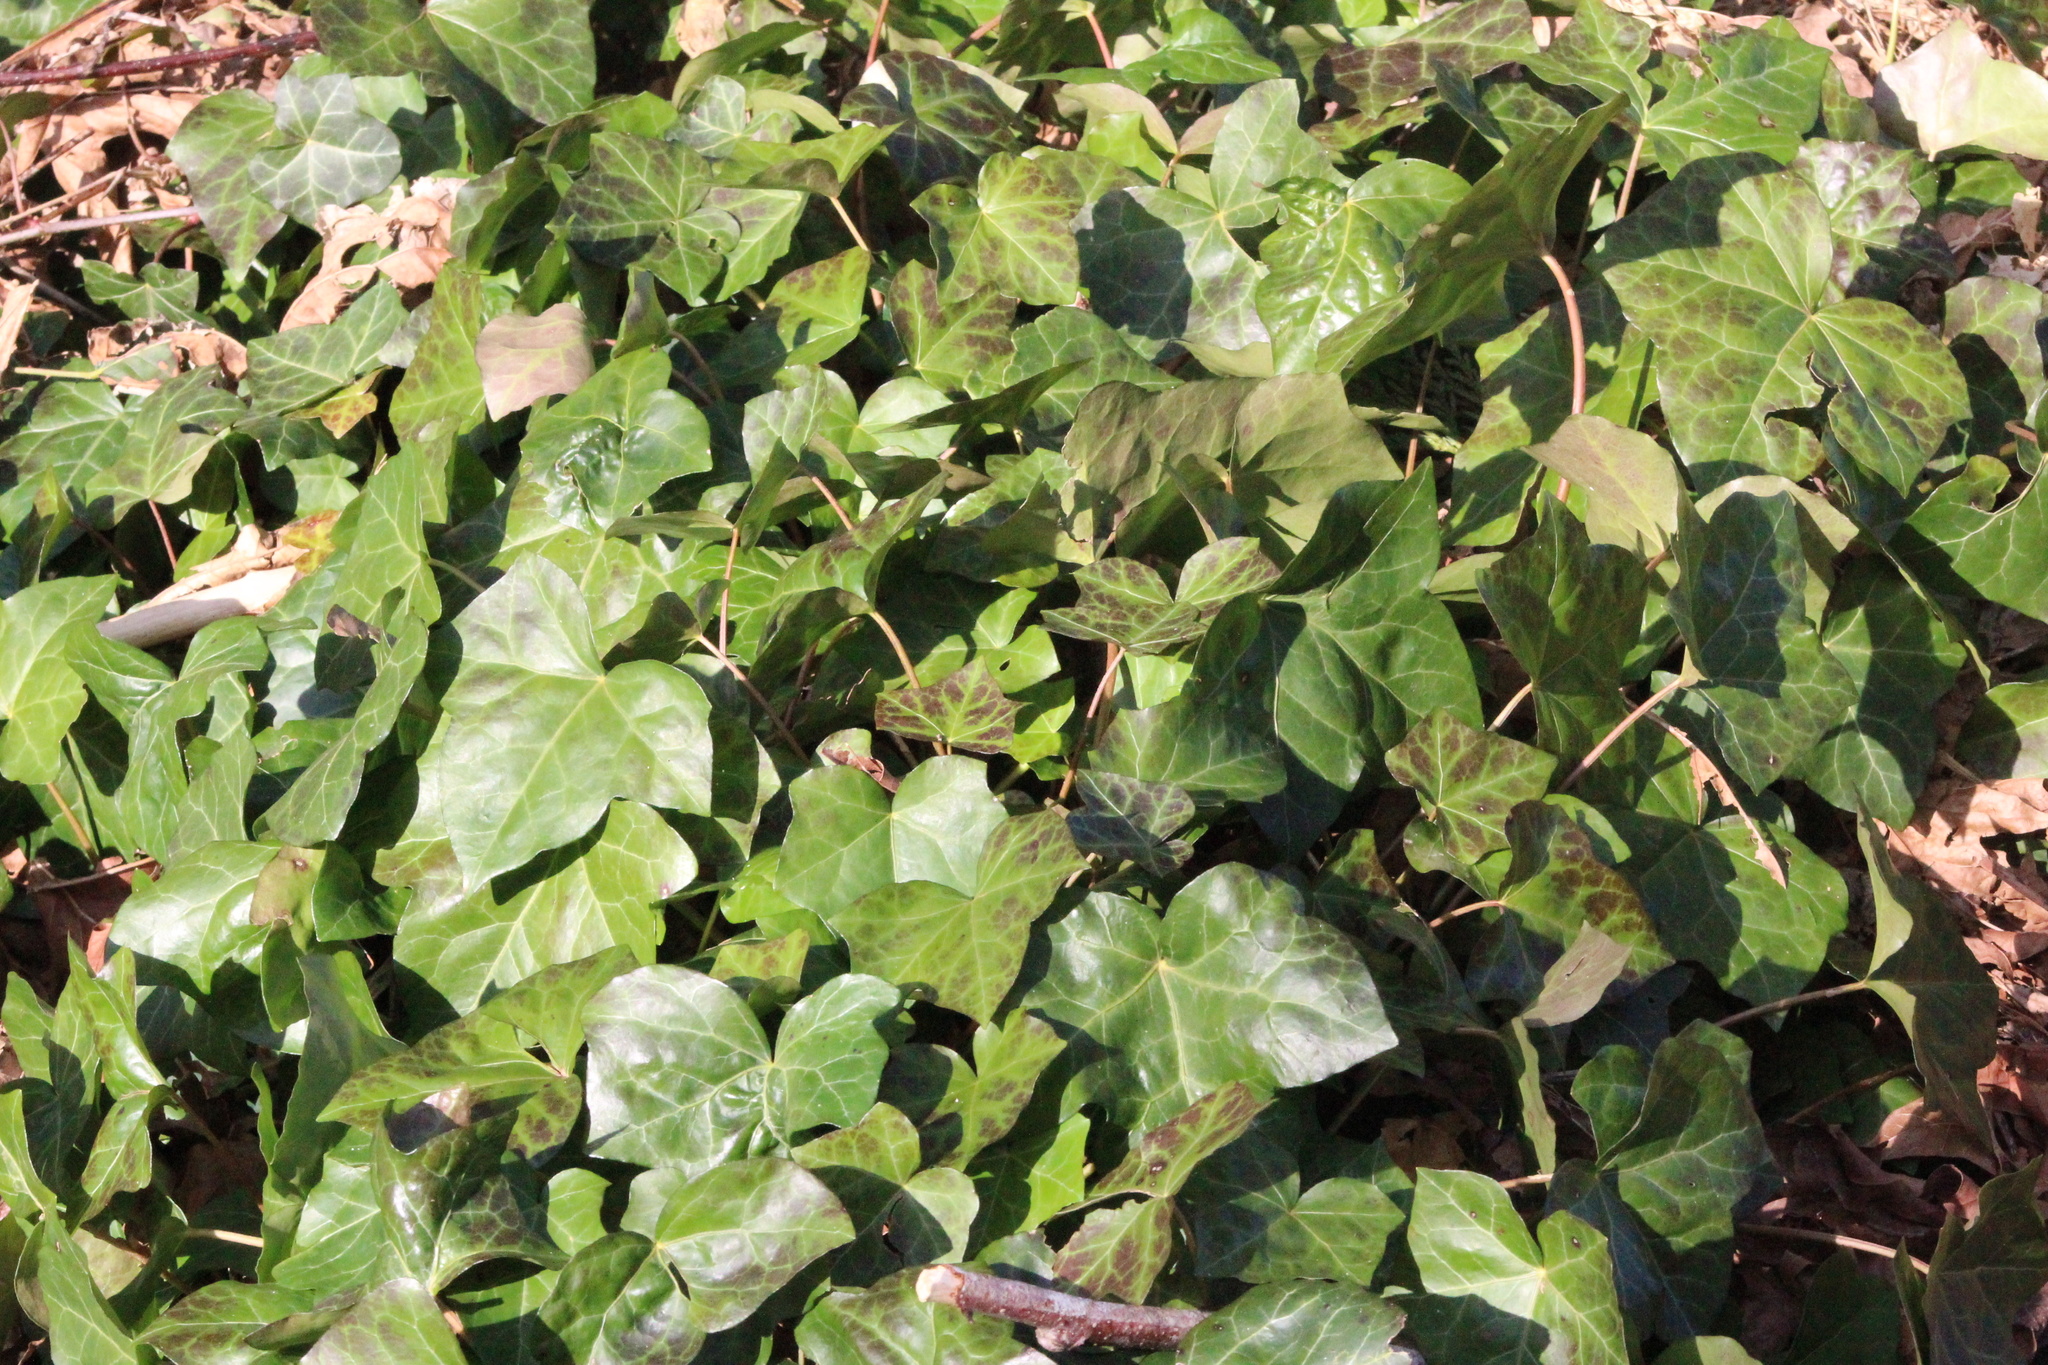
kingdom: Plantae
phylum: Tracheophyta
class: Magnoliopsida
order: Apiales
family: Araliaceae
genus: Hedera
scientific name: Hedera helix
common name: Ivy
